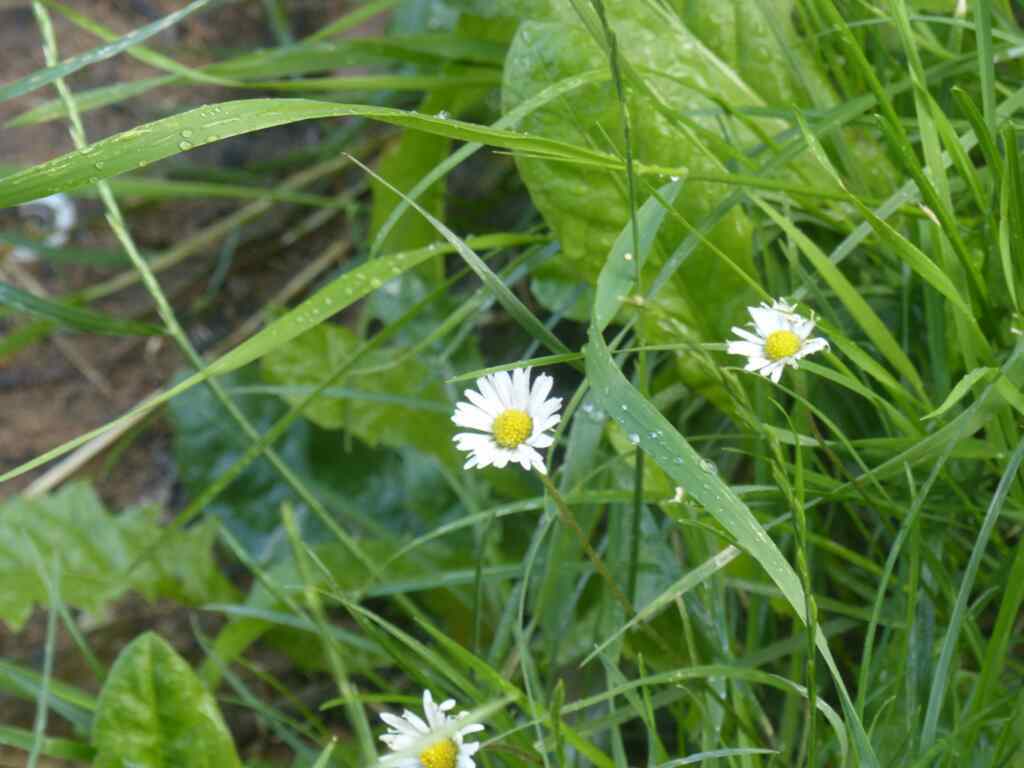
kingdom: Plantae
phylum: Tracheophyta
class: Magnoliopsida
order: Asterales
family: Asteraceae
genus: Bellis
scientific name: Bellis perennis
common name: Lawndaisy
